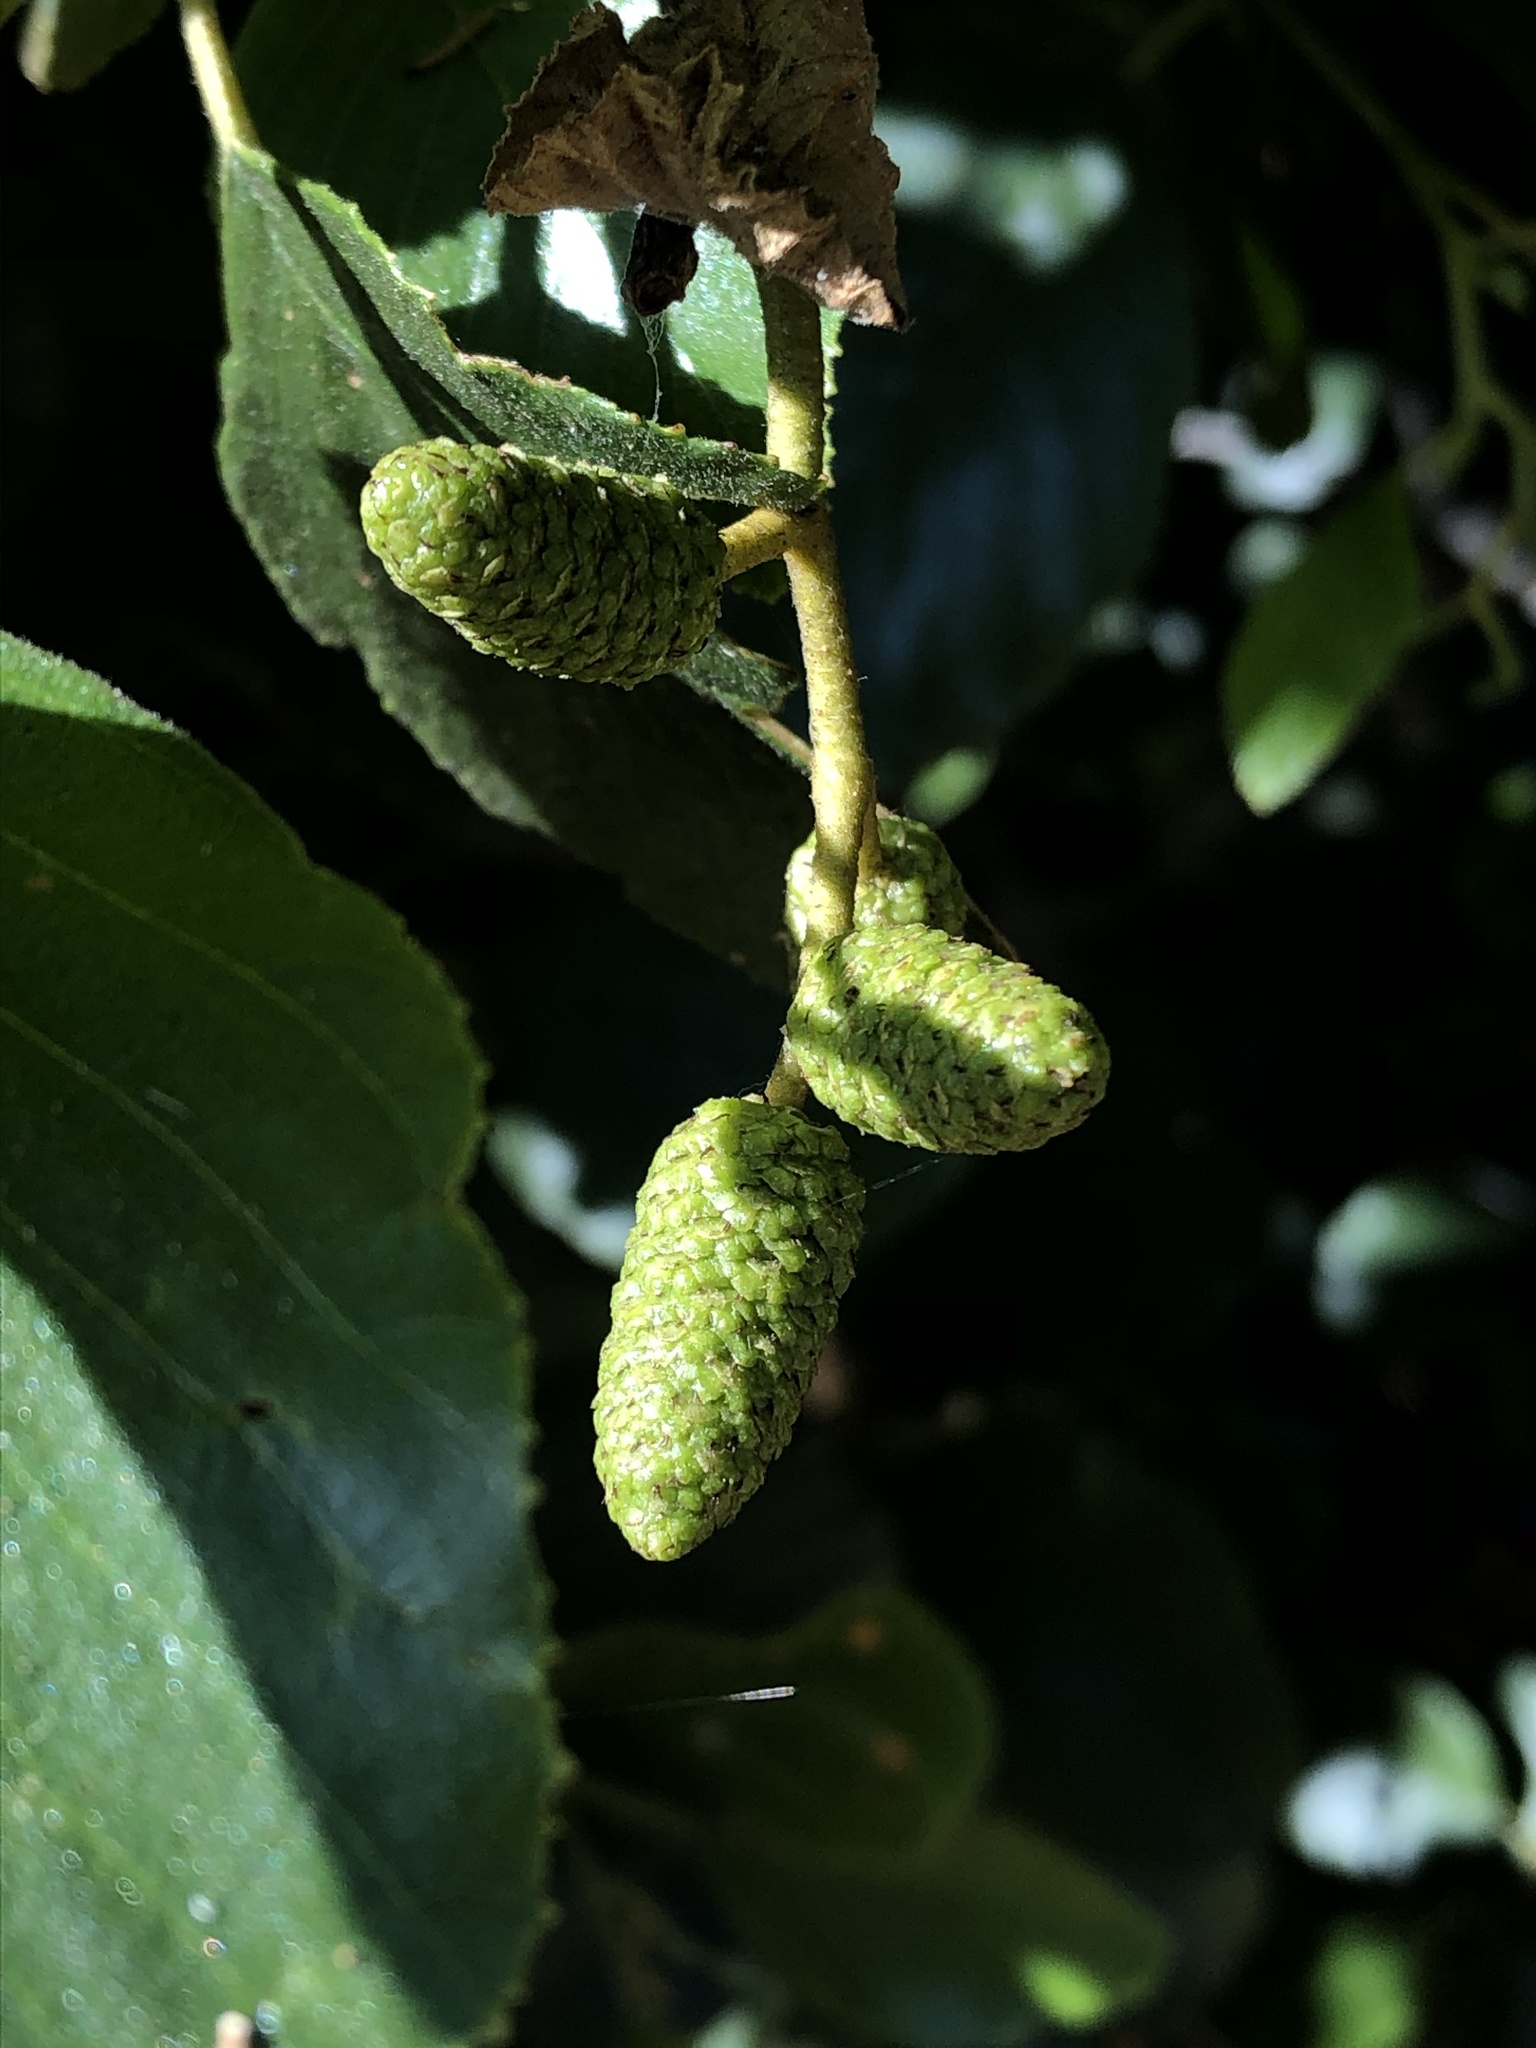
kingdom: Plantae
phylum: Tracheophyta
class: Magnoliopsida
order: Fagales
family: Betulaceae
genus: Alnus
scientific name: Alnus rhombifolia
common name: California alder
